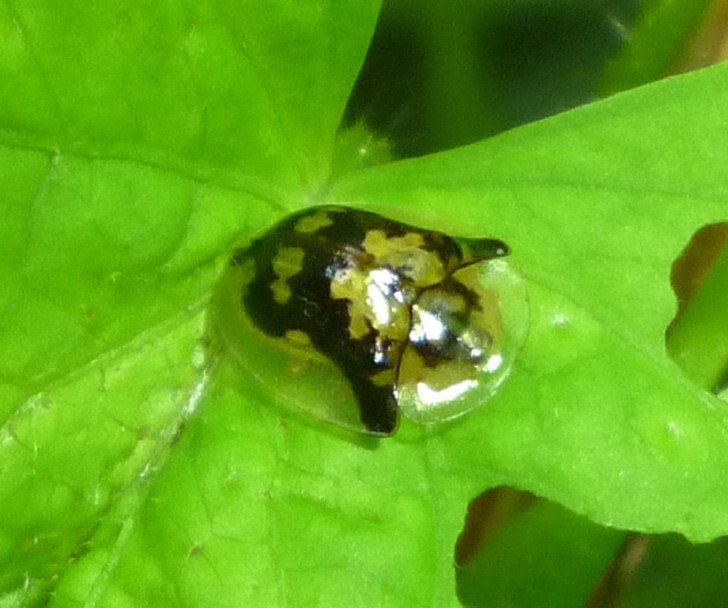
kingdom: Animalia
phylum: Arthropoda
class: Insecta
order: Coleoptera
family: Chrysomelidae
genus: Deloyala
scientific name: Deloyala guttata
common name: Mottled tortoise beetle
